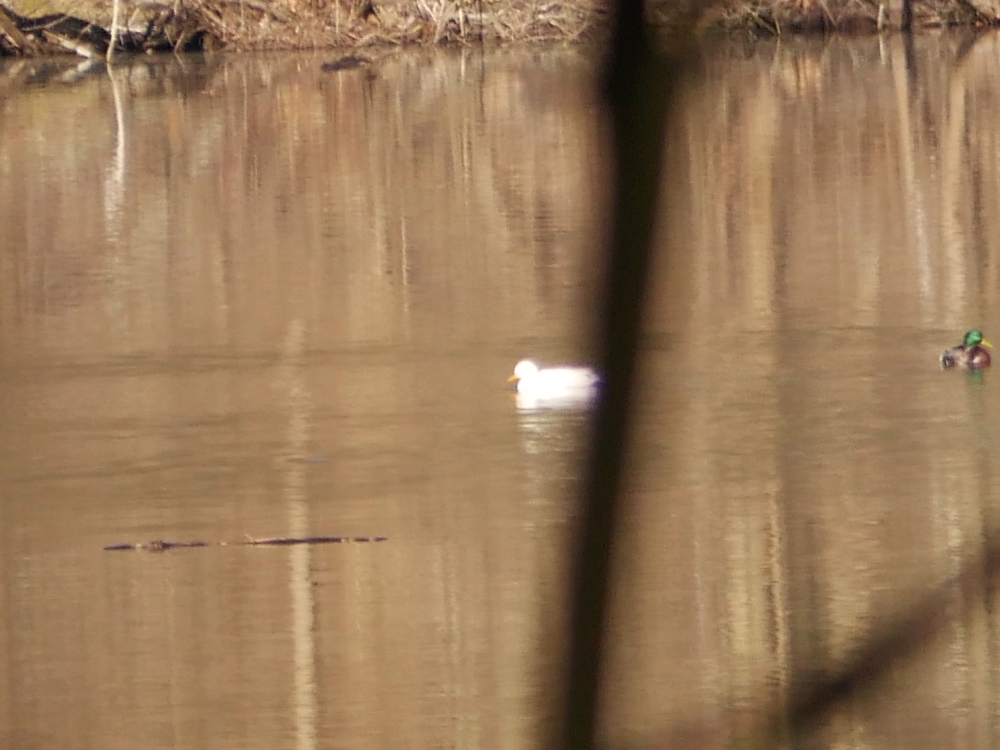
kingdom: Animalia
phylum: Chordata
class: Aves
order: Anseriformes
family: Anatidae
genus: Anas
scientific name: Anas platyrhynchos
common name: Mallard
